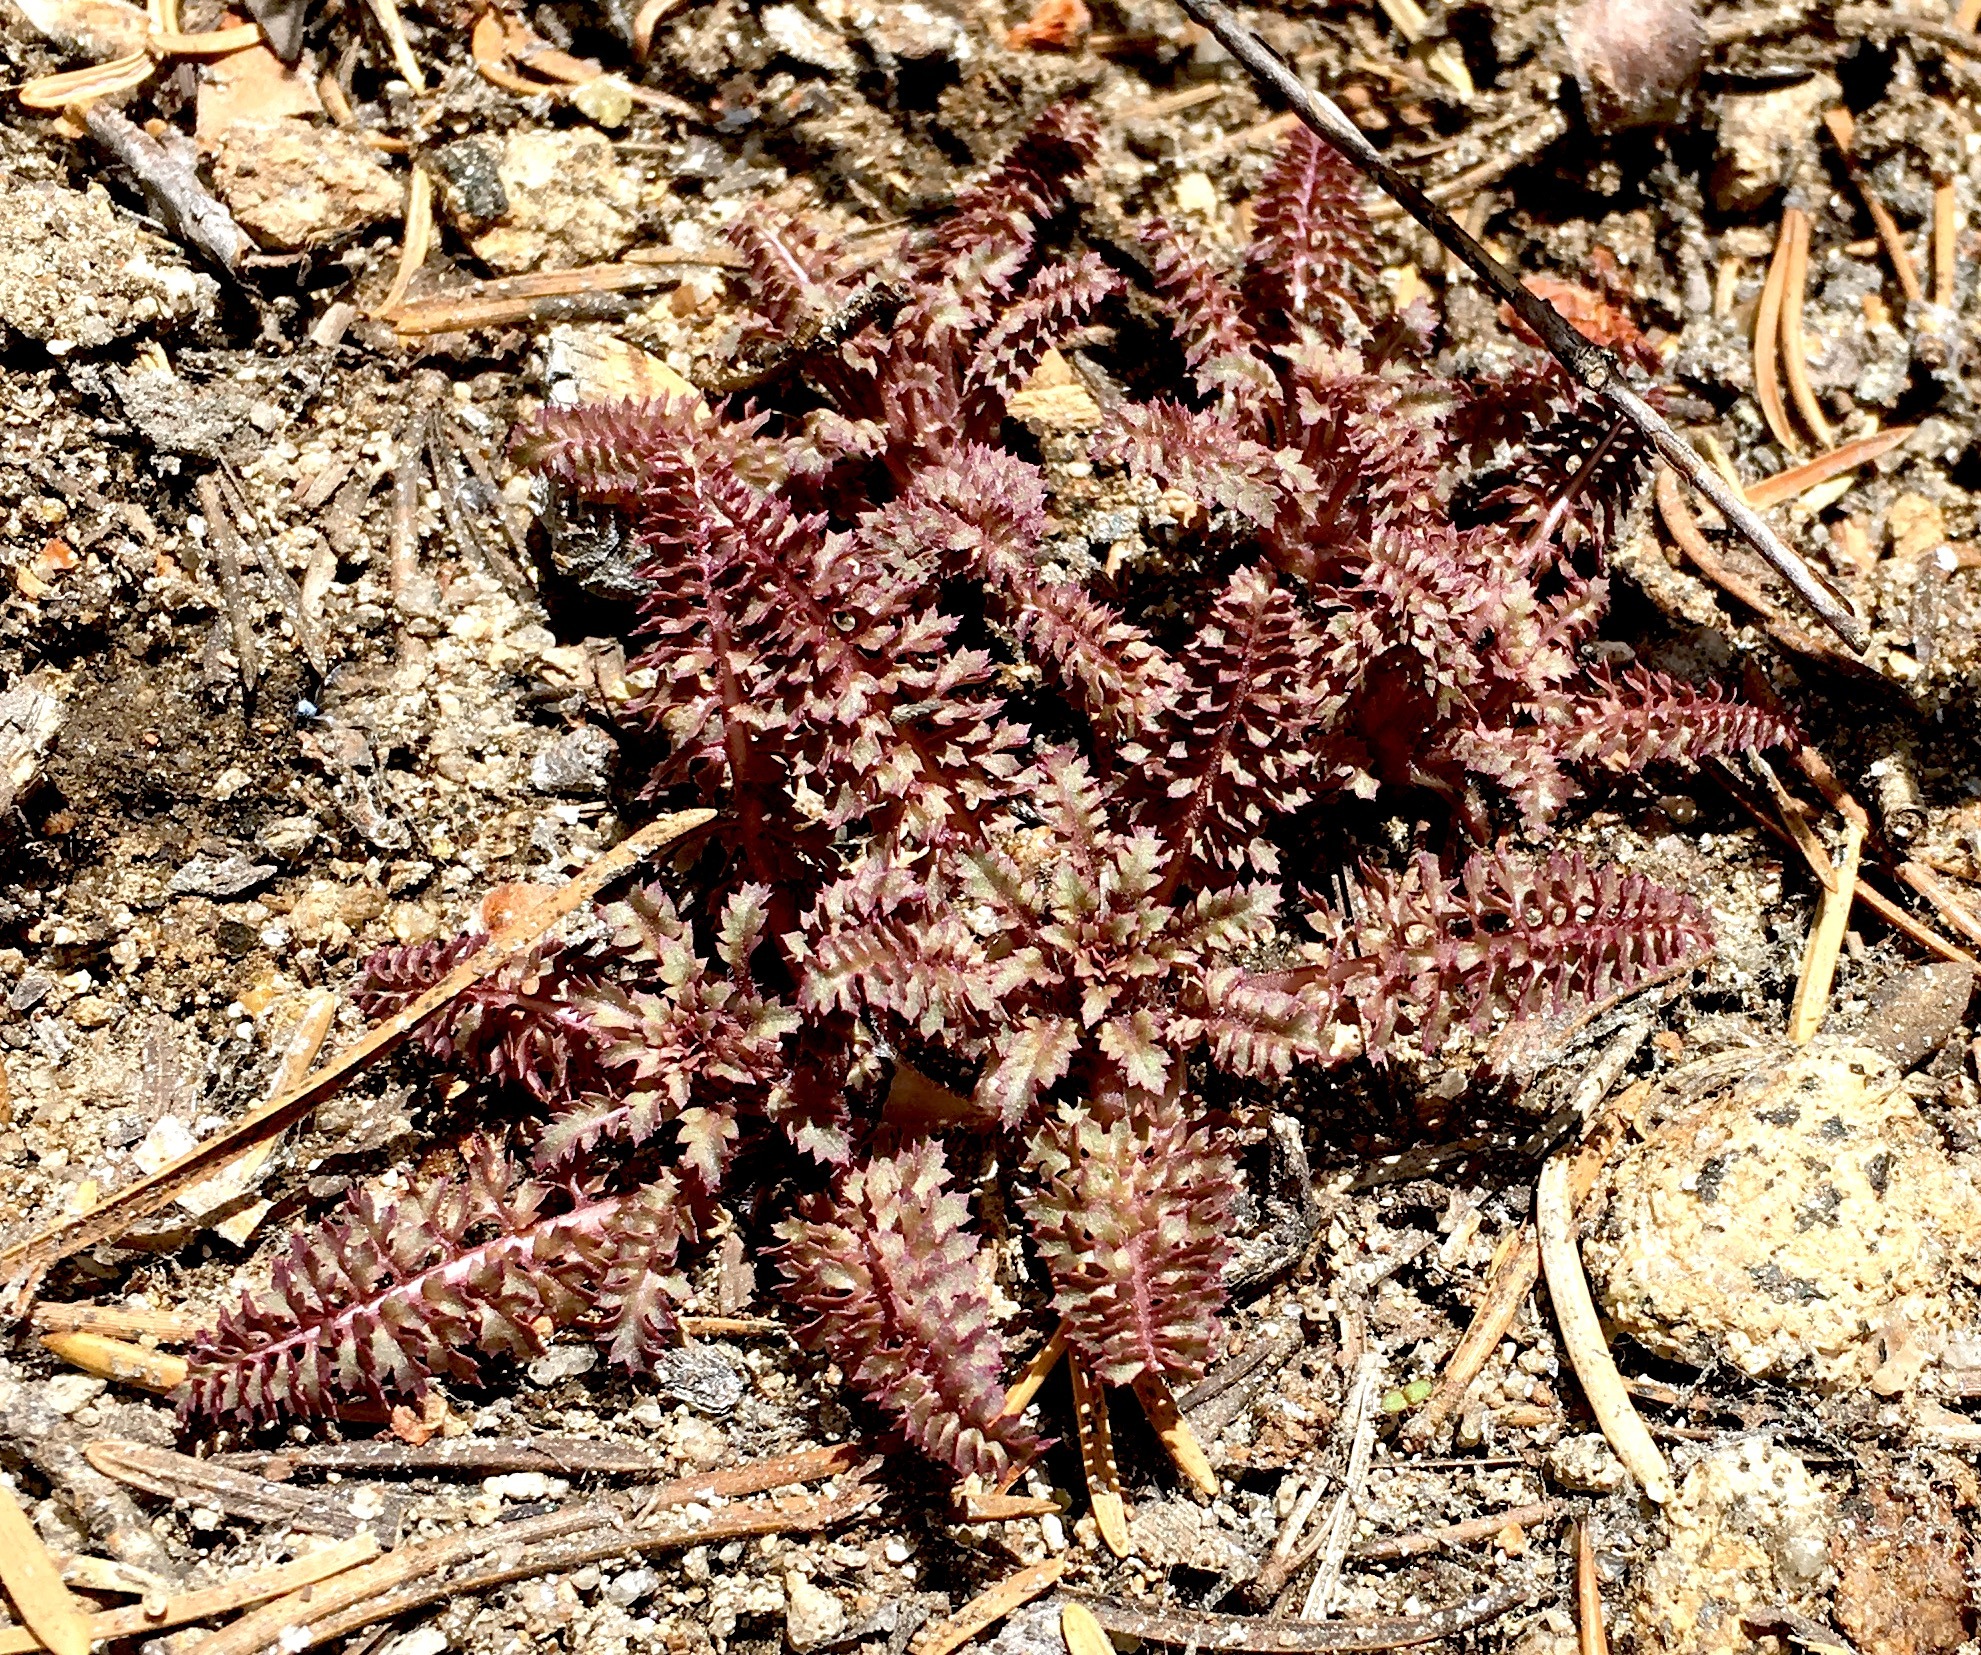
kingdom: Plantae
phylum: Tracheophyta
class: Magnoliopsida
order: Lamiales
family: Orobanchaceae
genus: Pedicularis
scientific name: Pedicularis semibarbata
